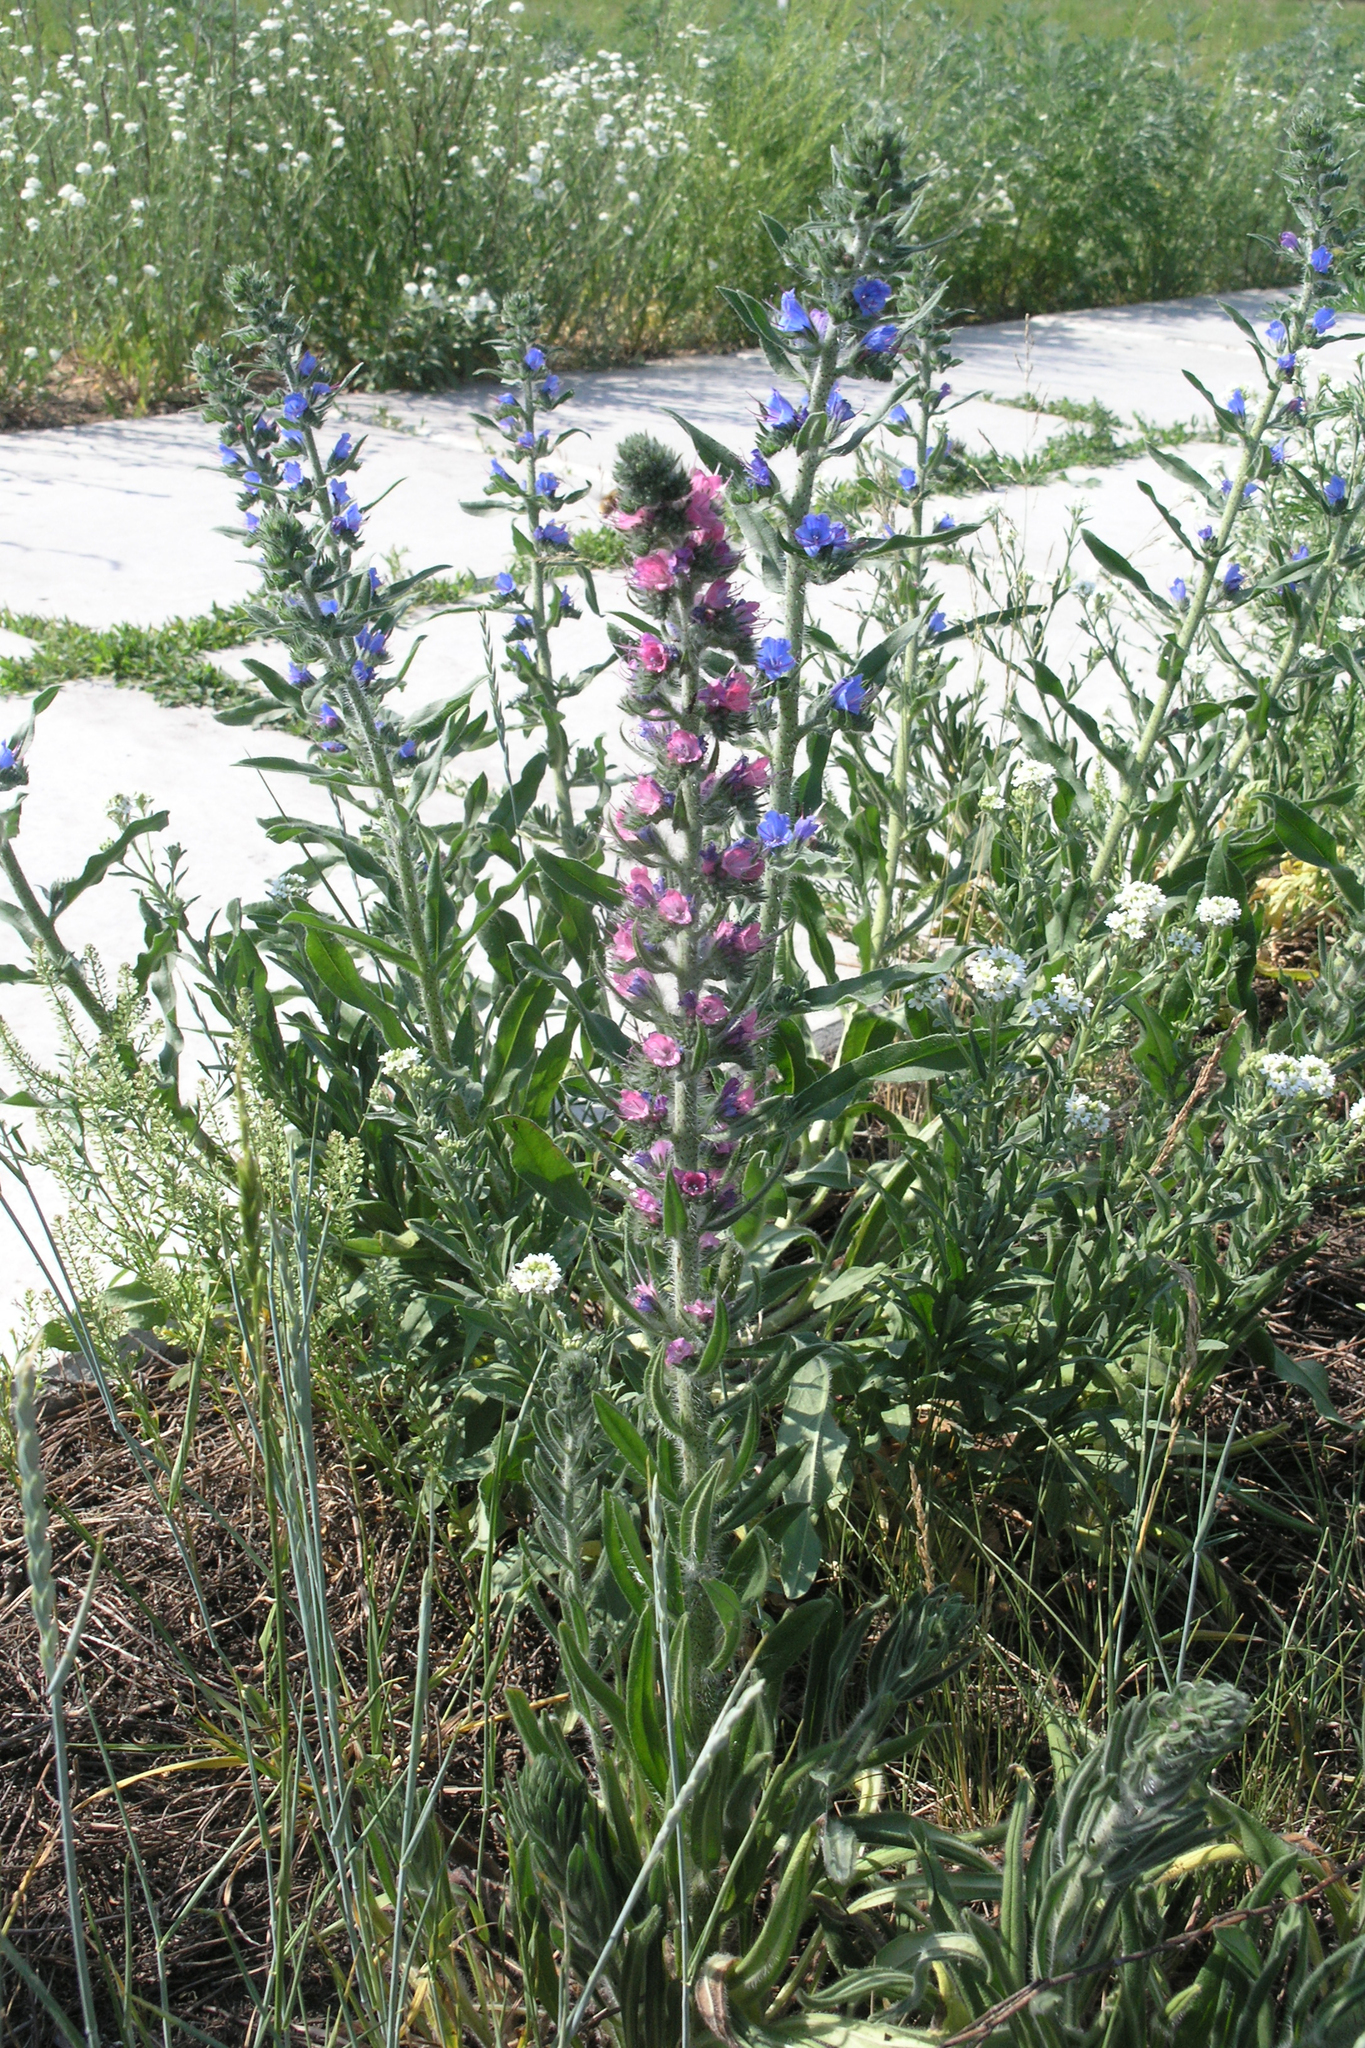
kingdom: Plantae
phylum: Tracheophyta
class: Magnoliopsida
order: Boraginales
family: Boraginaceae
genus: Echium
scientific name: Echium vulgare
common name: Common viper's bugloss
